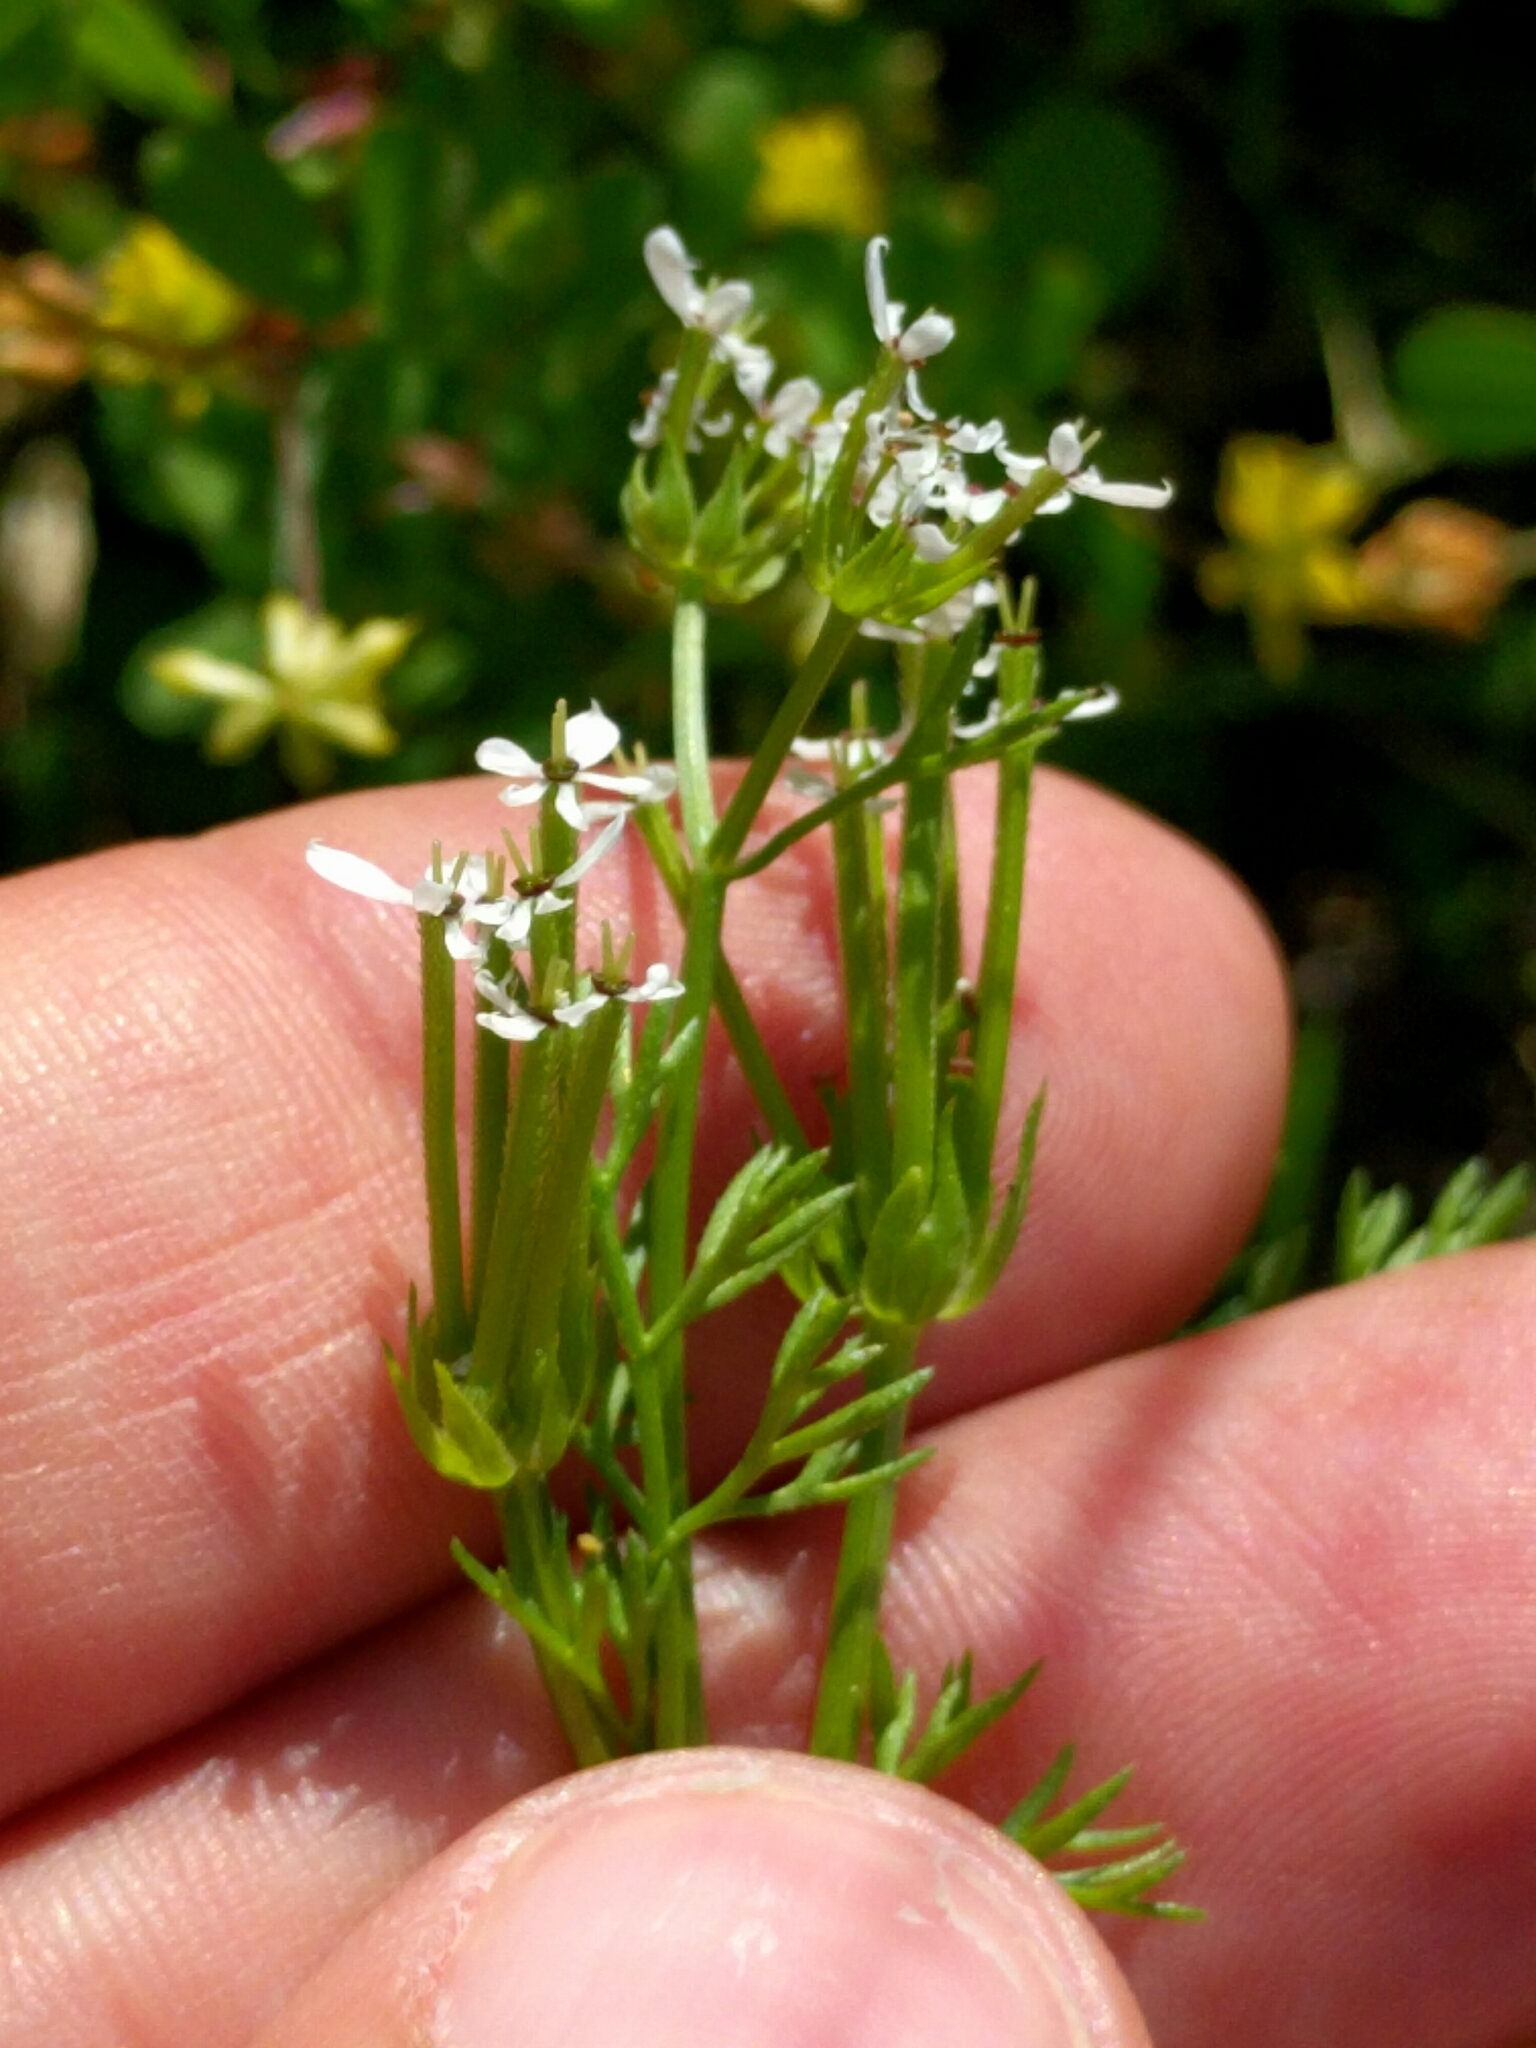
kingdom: Plantae
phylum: Tracheophyta
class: Magnoliopsida
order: Apiales
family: Apiaceae
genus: Scandix
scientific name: Scandix pecten-veneris
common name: Shepherd's-needle
